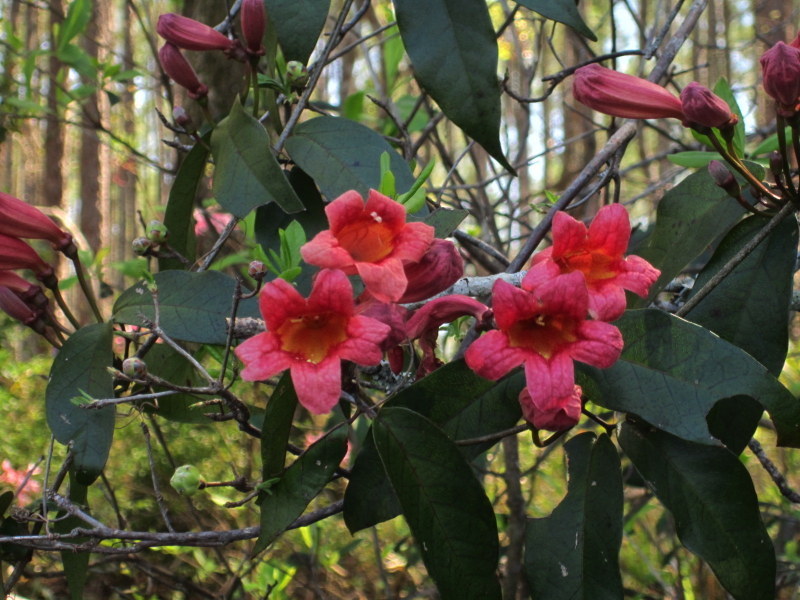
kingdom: Plantae
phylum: Tracheophyta
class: Magnoliopsida
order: Lamiales
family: Bignoniaceae
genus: Bignonia
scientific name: Bignonia capreolata
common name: Crossvine
